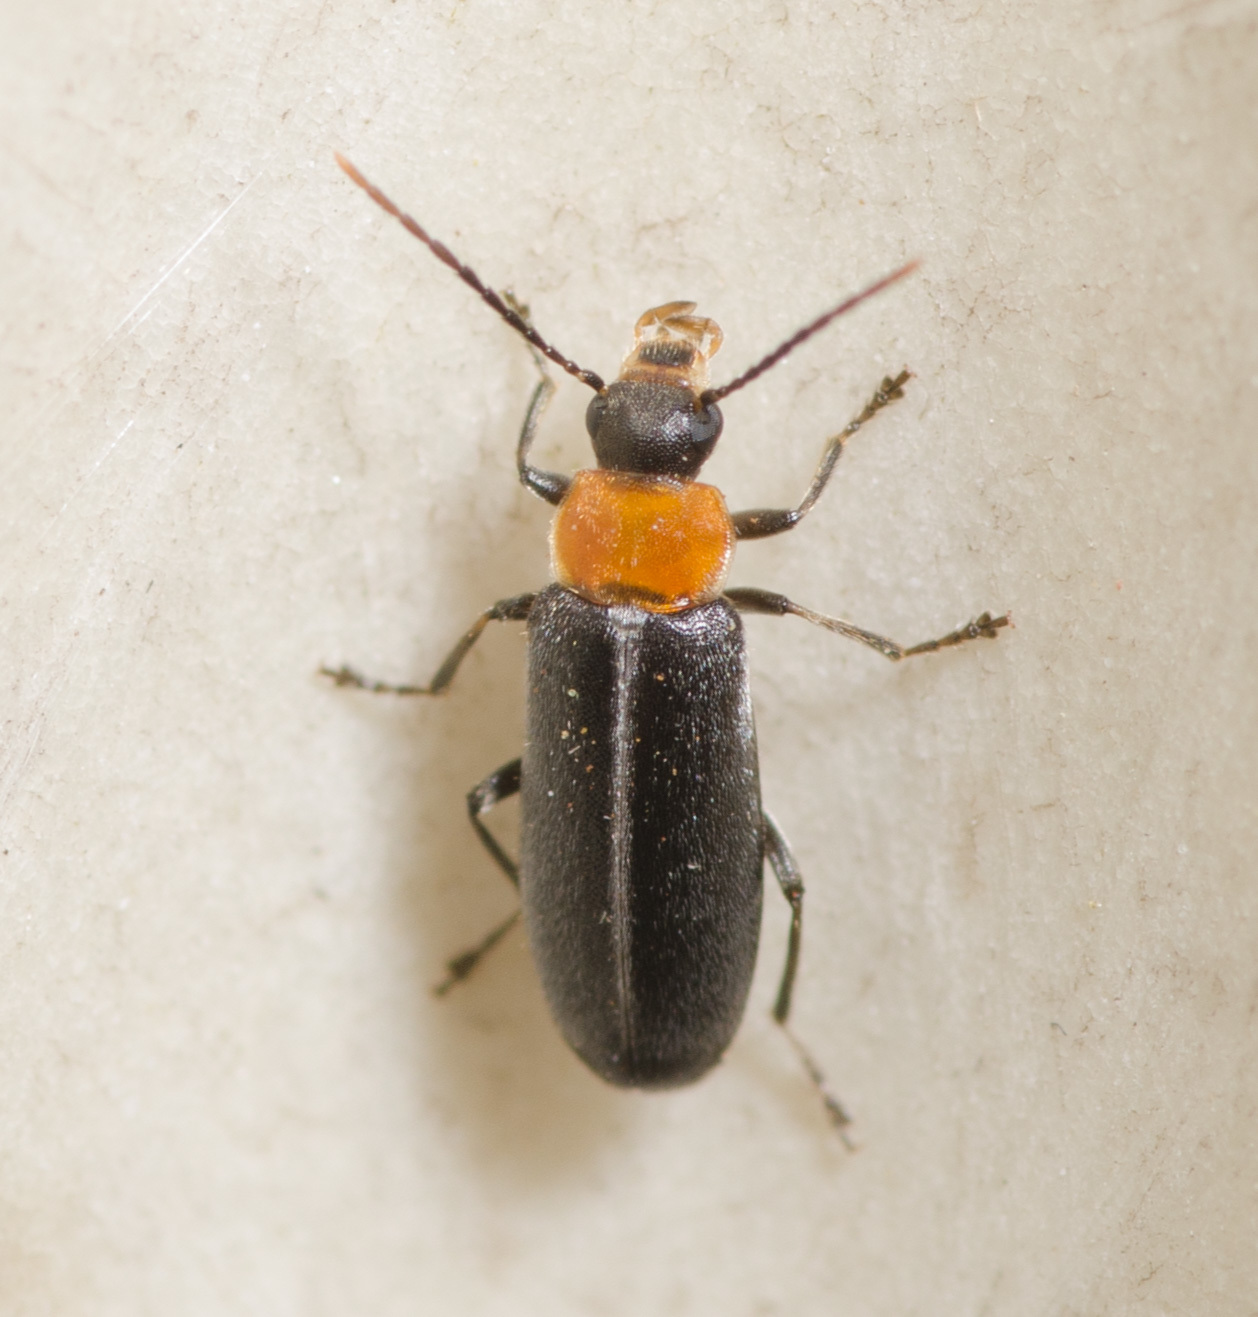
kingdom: Animalia
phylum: Arthropoda
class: Insecta
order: Coleoptera
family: Melandryidae
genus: Osphya
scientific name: Osphya varians
